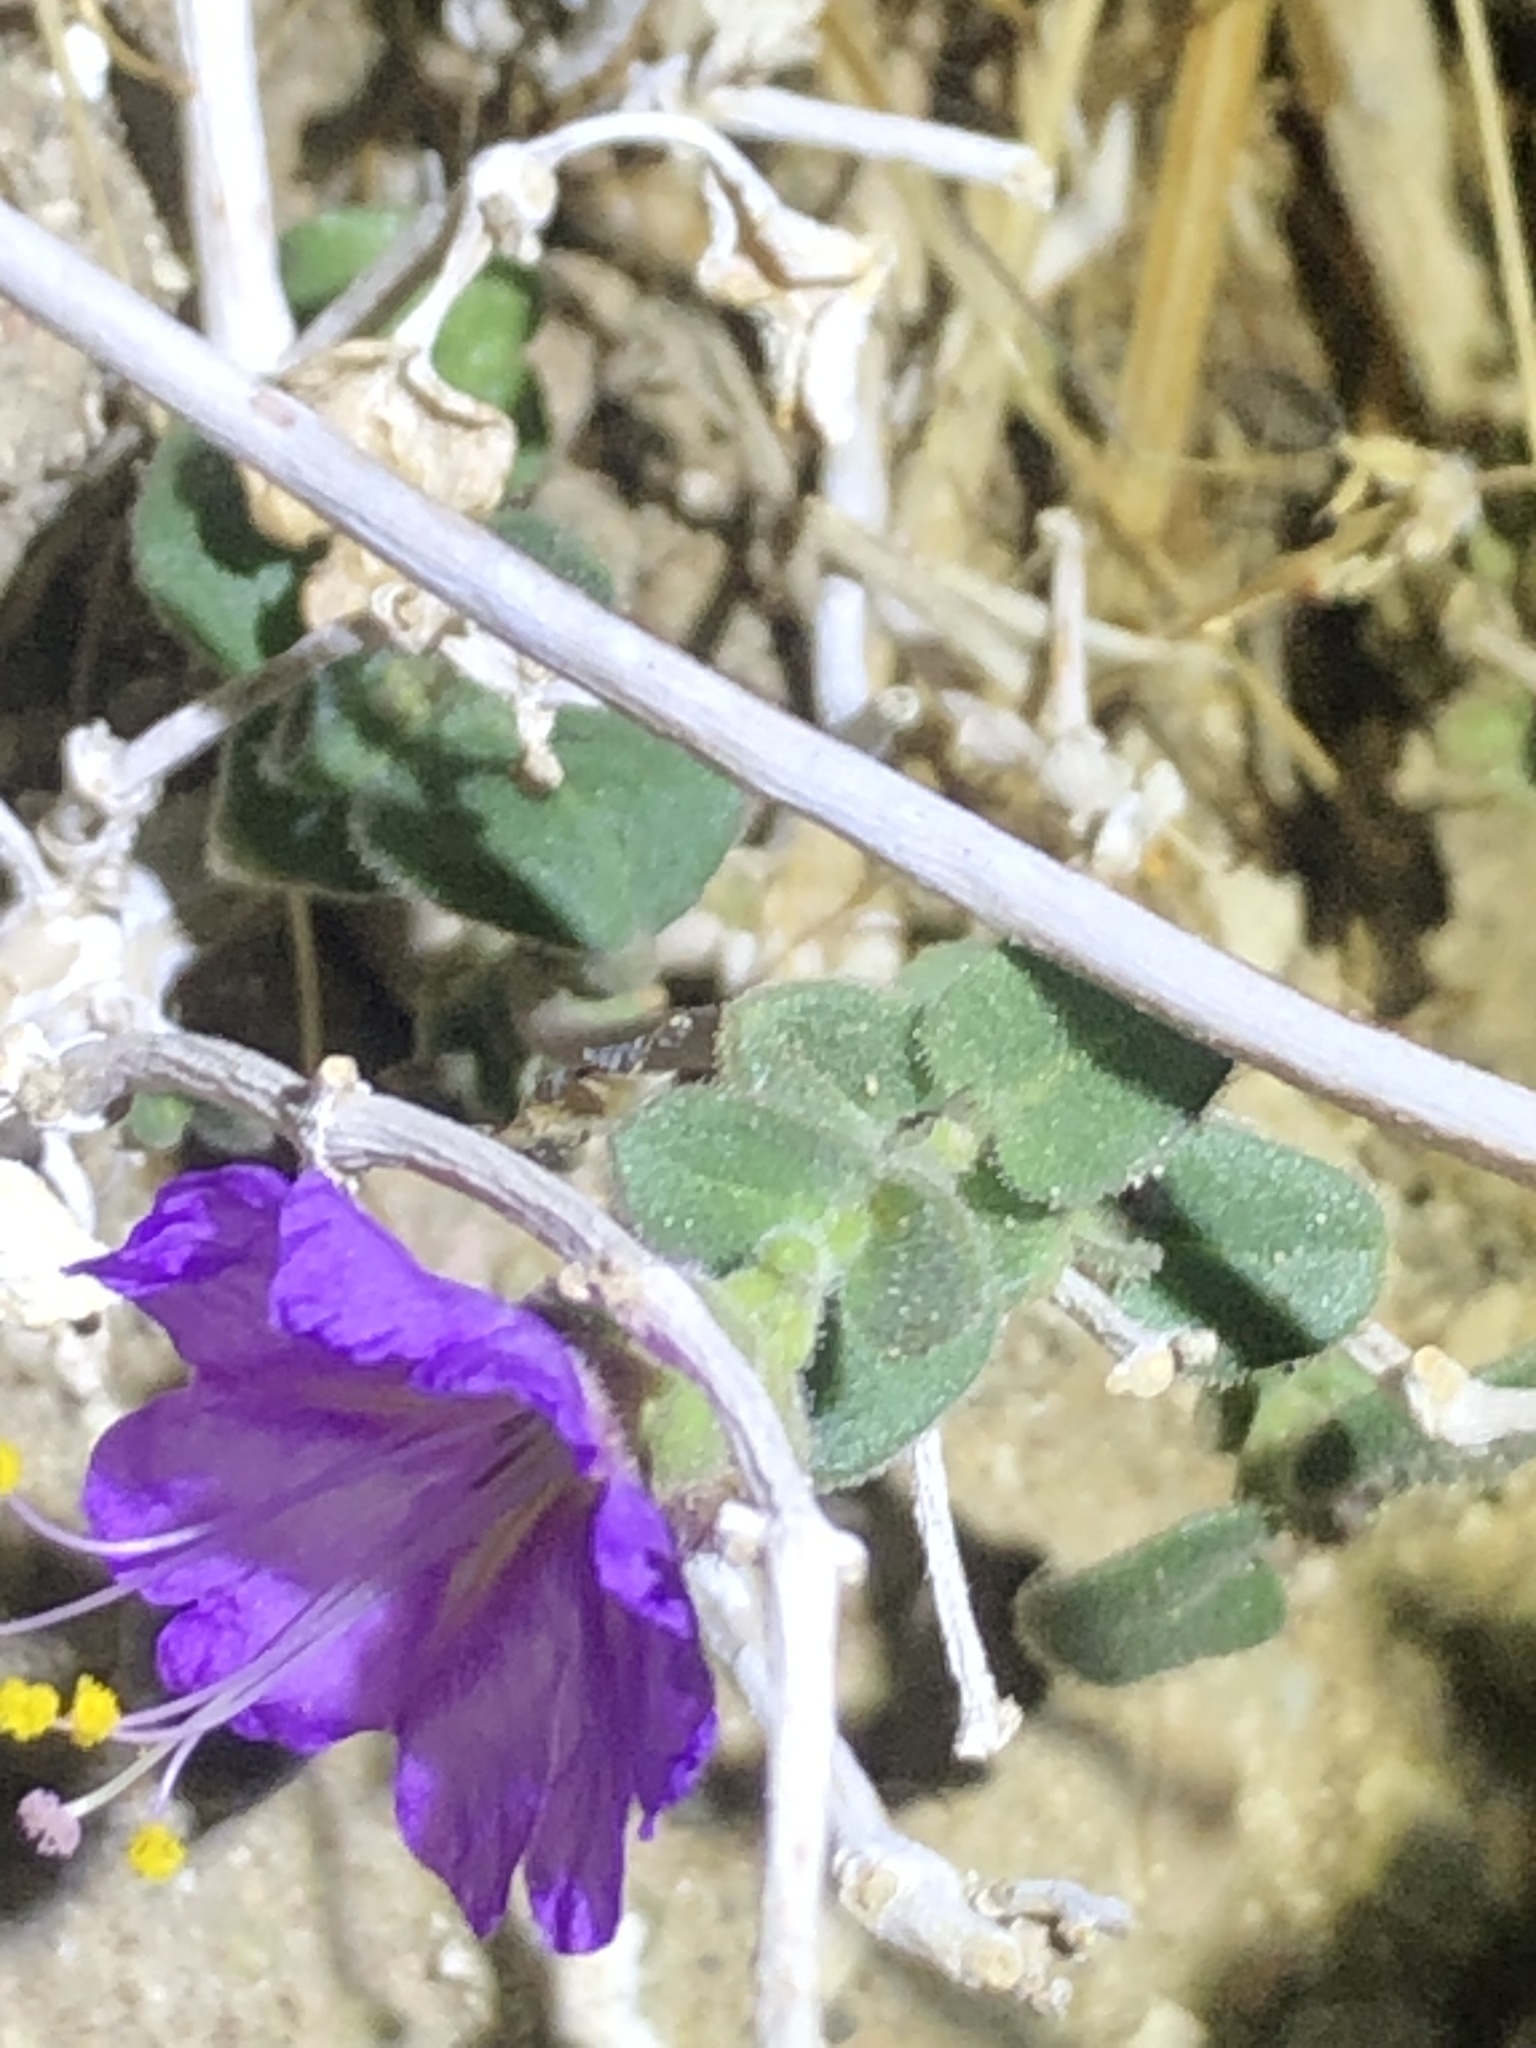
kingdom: Plantae
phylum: Tracheophyta
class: Magnoliopsida
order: Caryophyllales
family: Nyctaginaceae
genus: Mirabilis
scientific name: Mirabilis laevis
